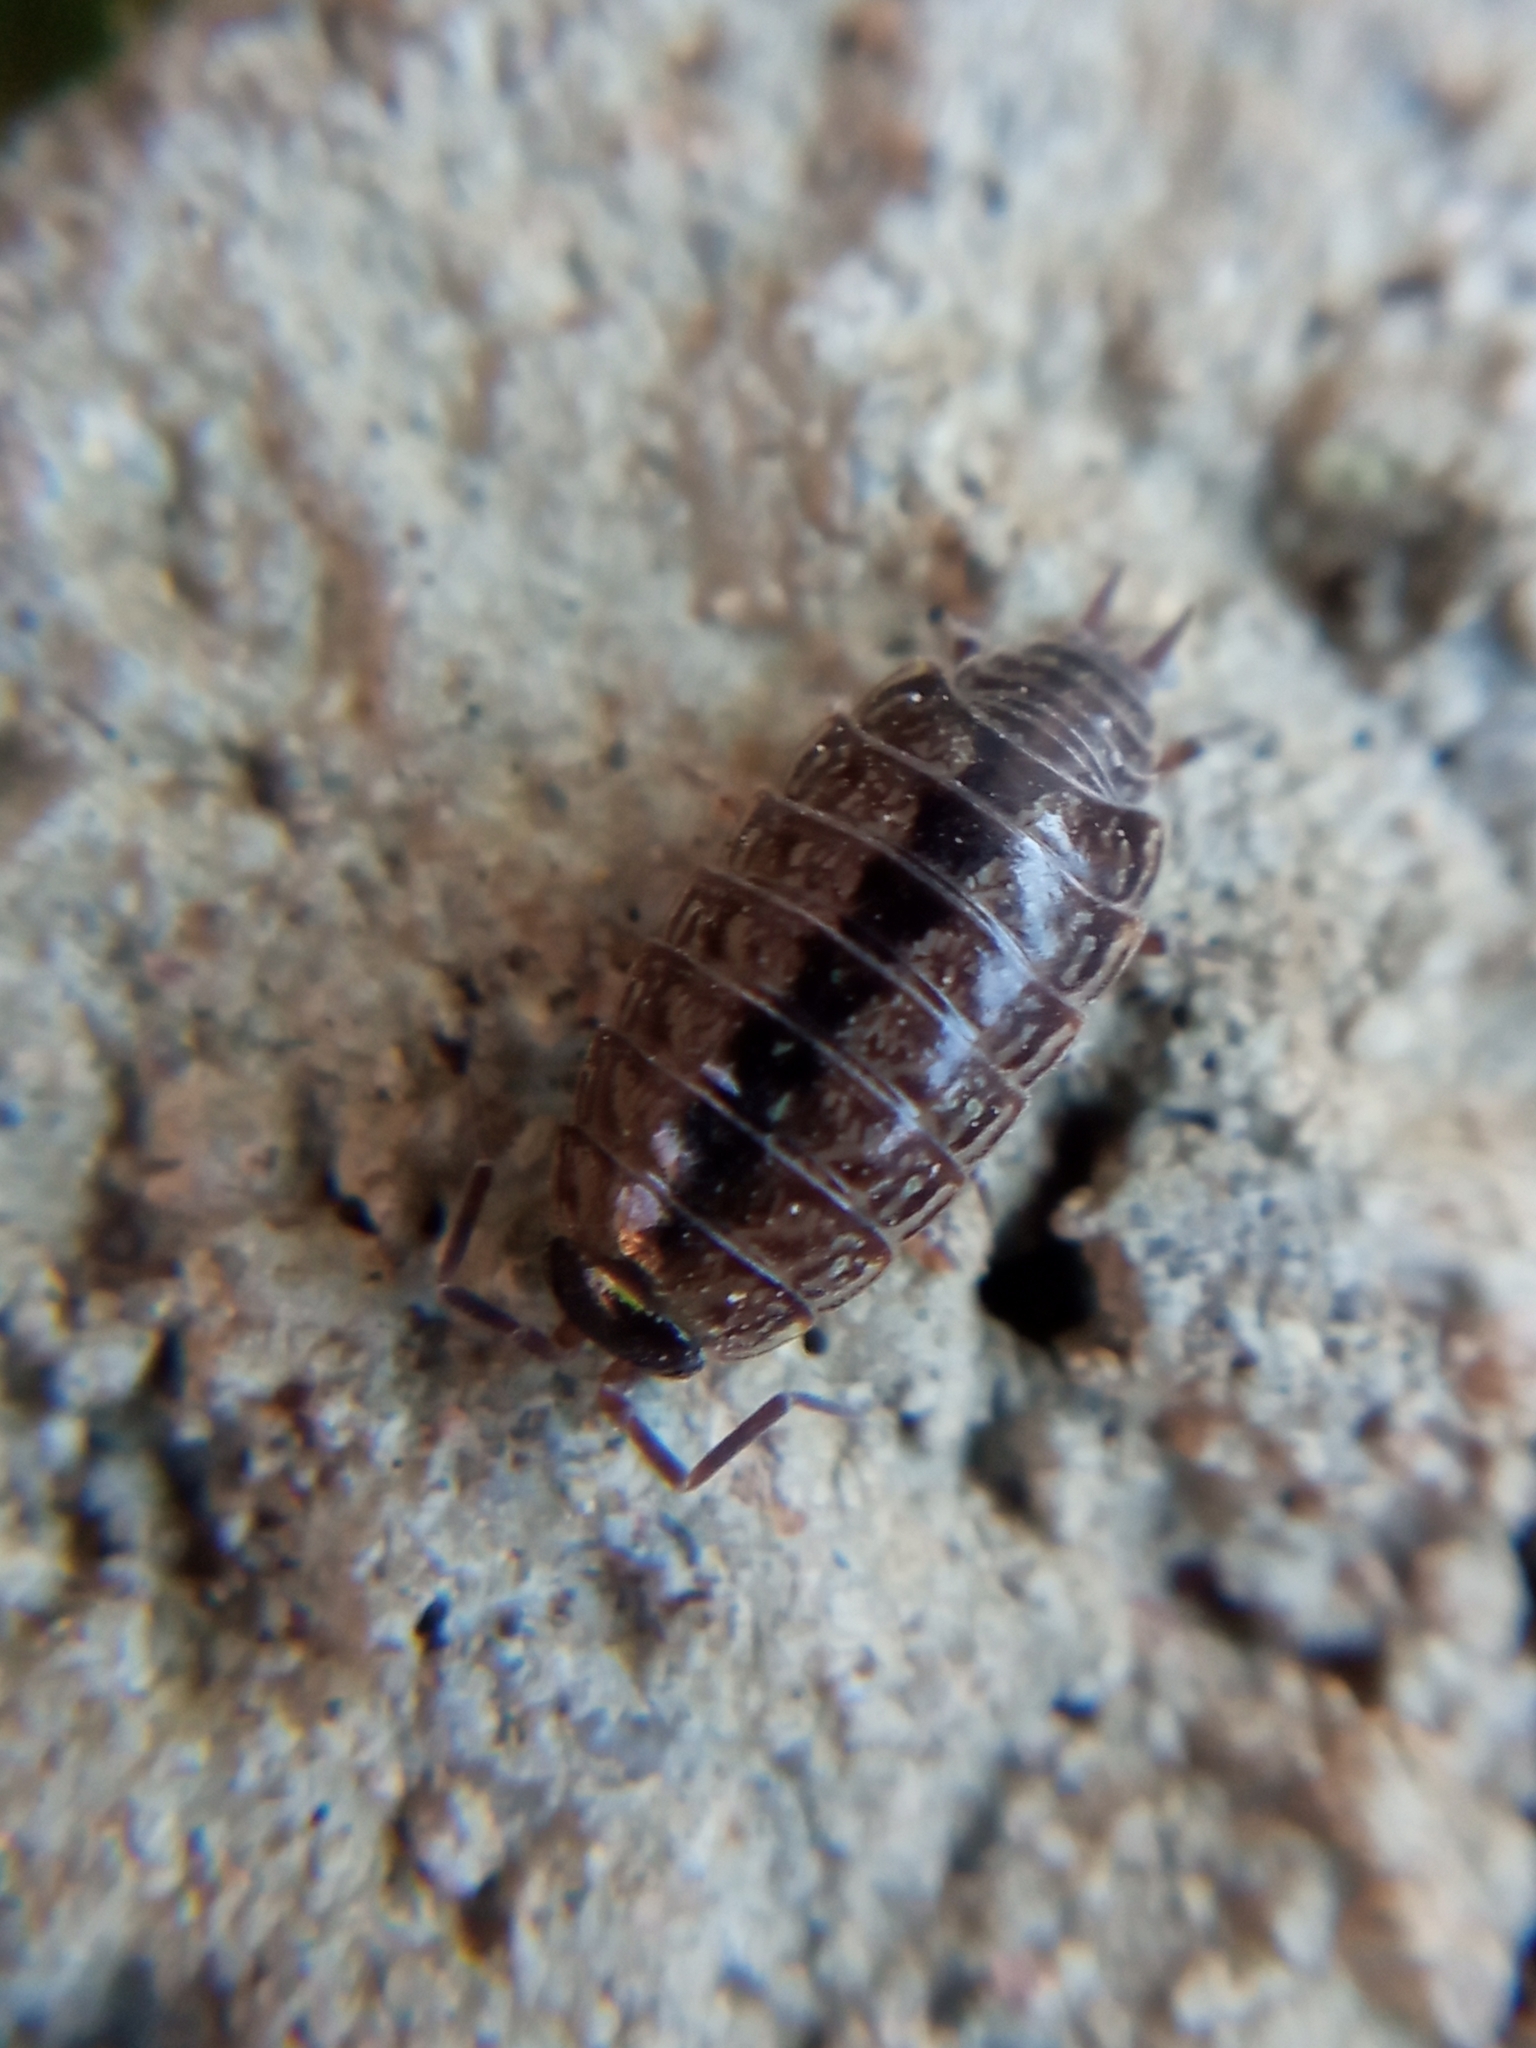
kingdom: Animalia
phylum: Arthropoda
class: Malacostraca
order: Isopoda
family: Philosciidae
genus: Philoscia
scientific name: Philoscia muscorum
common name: Common striped woodlouse
